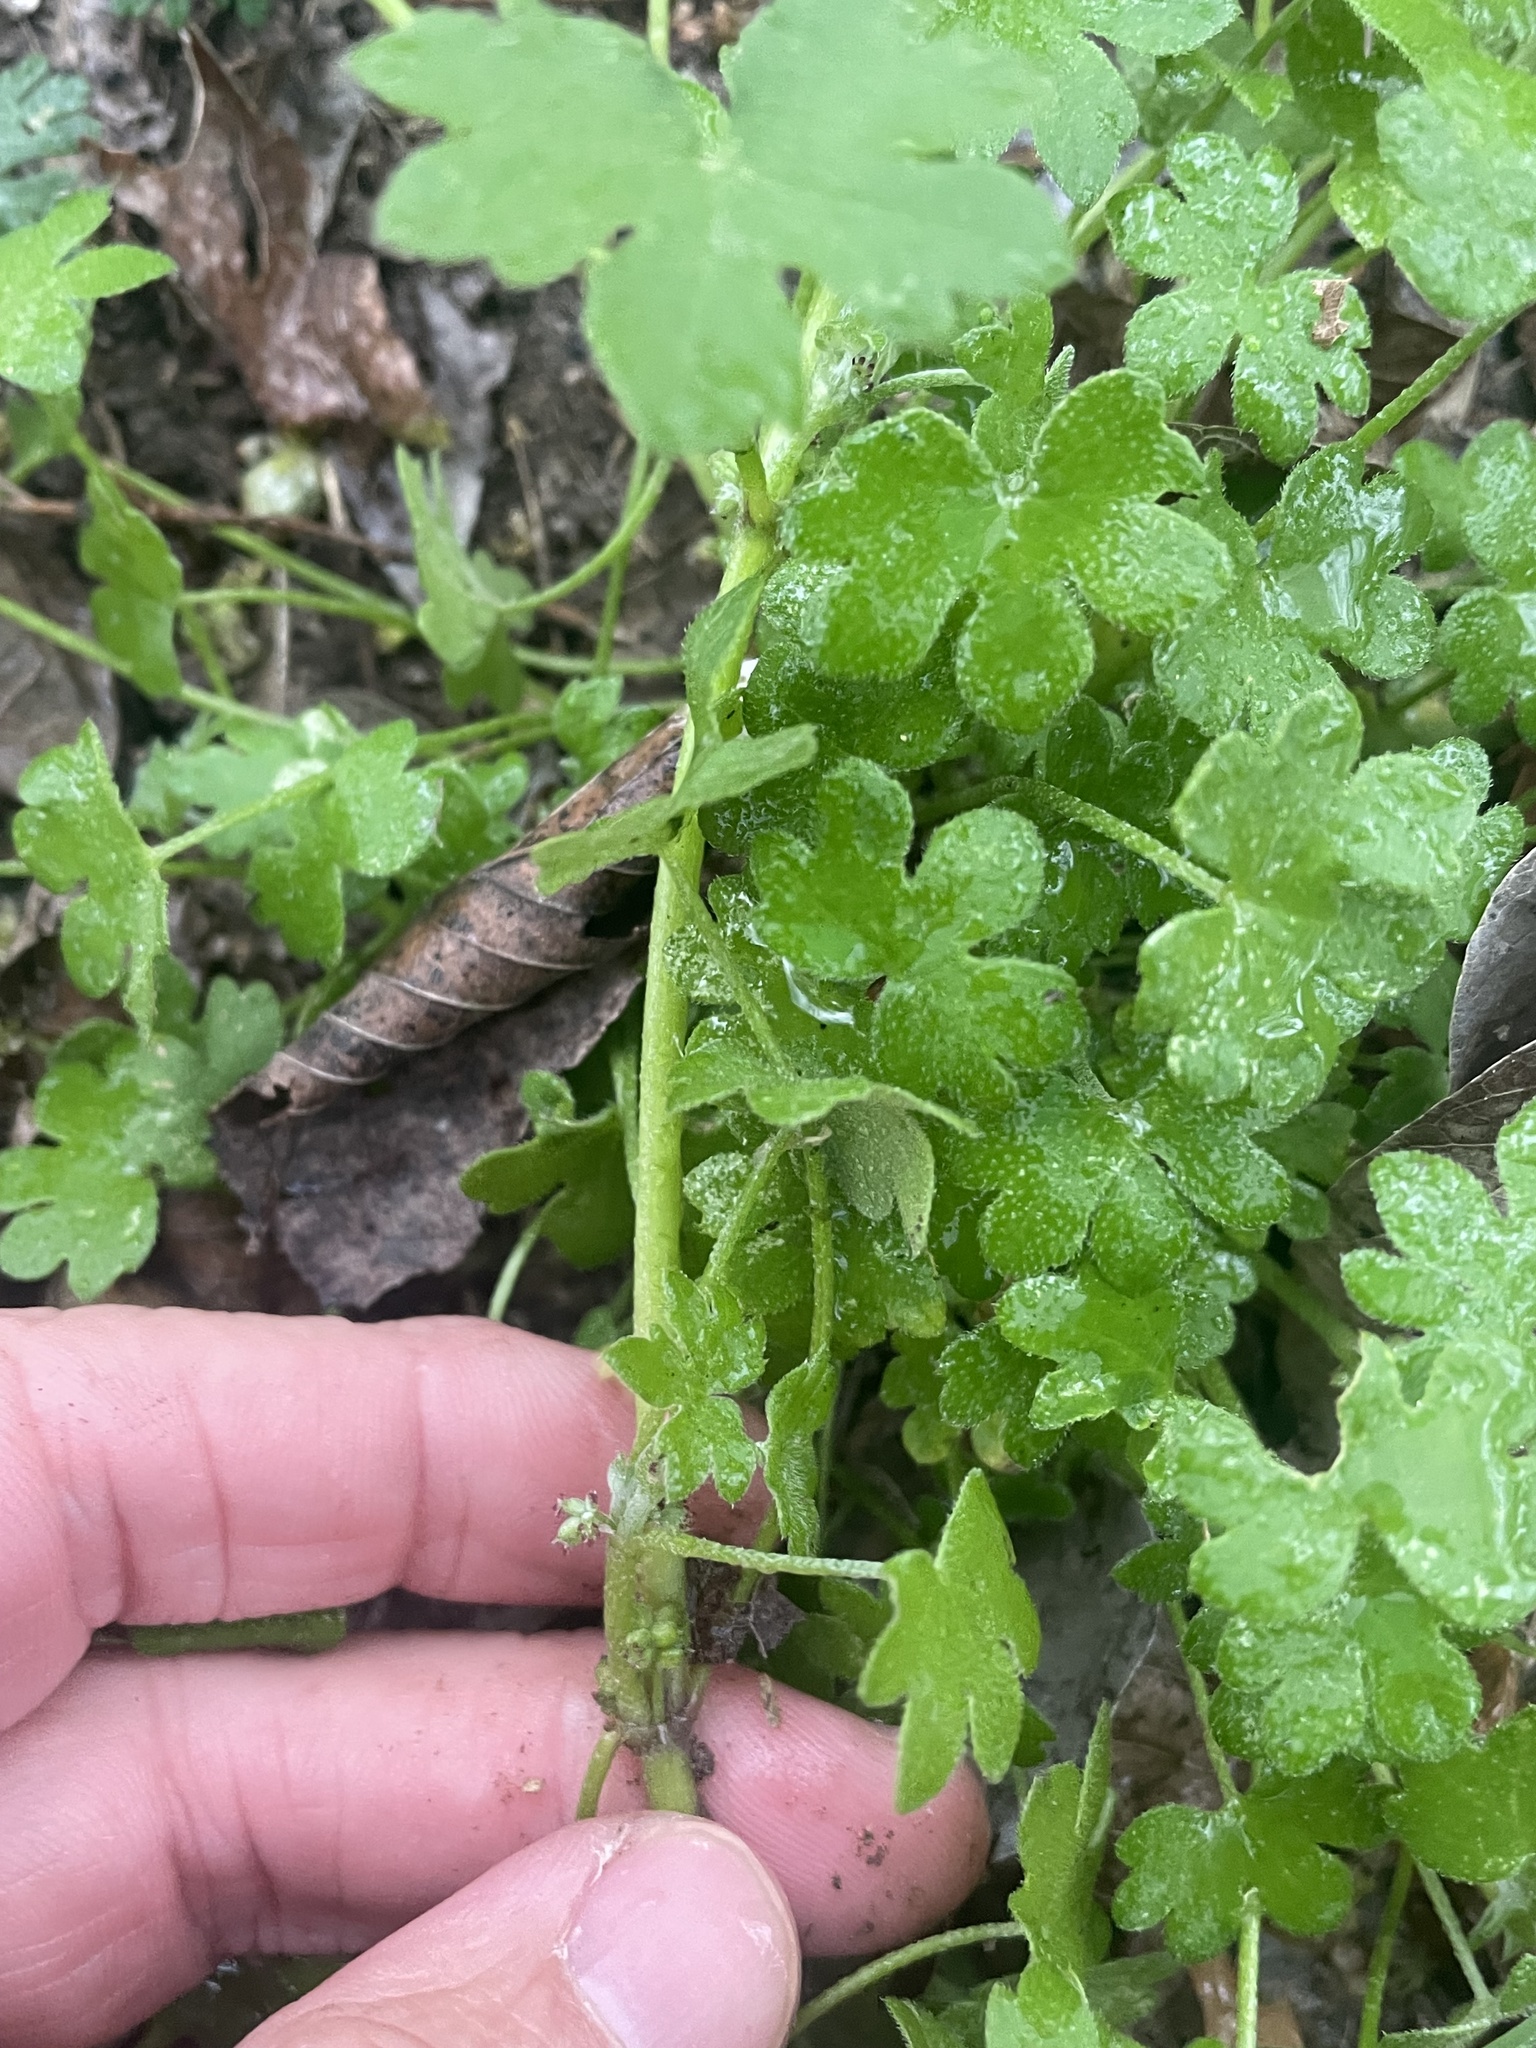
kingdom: Plantae
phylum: Tracheophyta
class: Magnoliopsida
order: Apiales
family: Apiaceae
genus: Bowlesia
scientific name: Bowlesia incana
